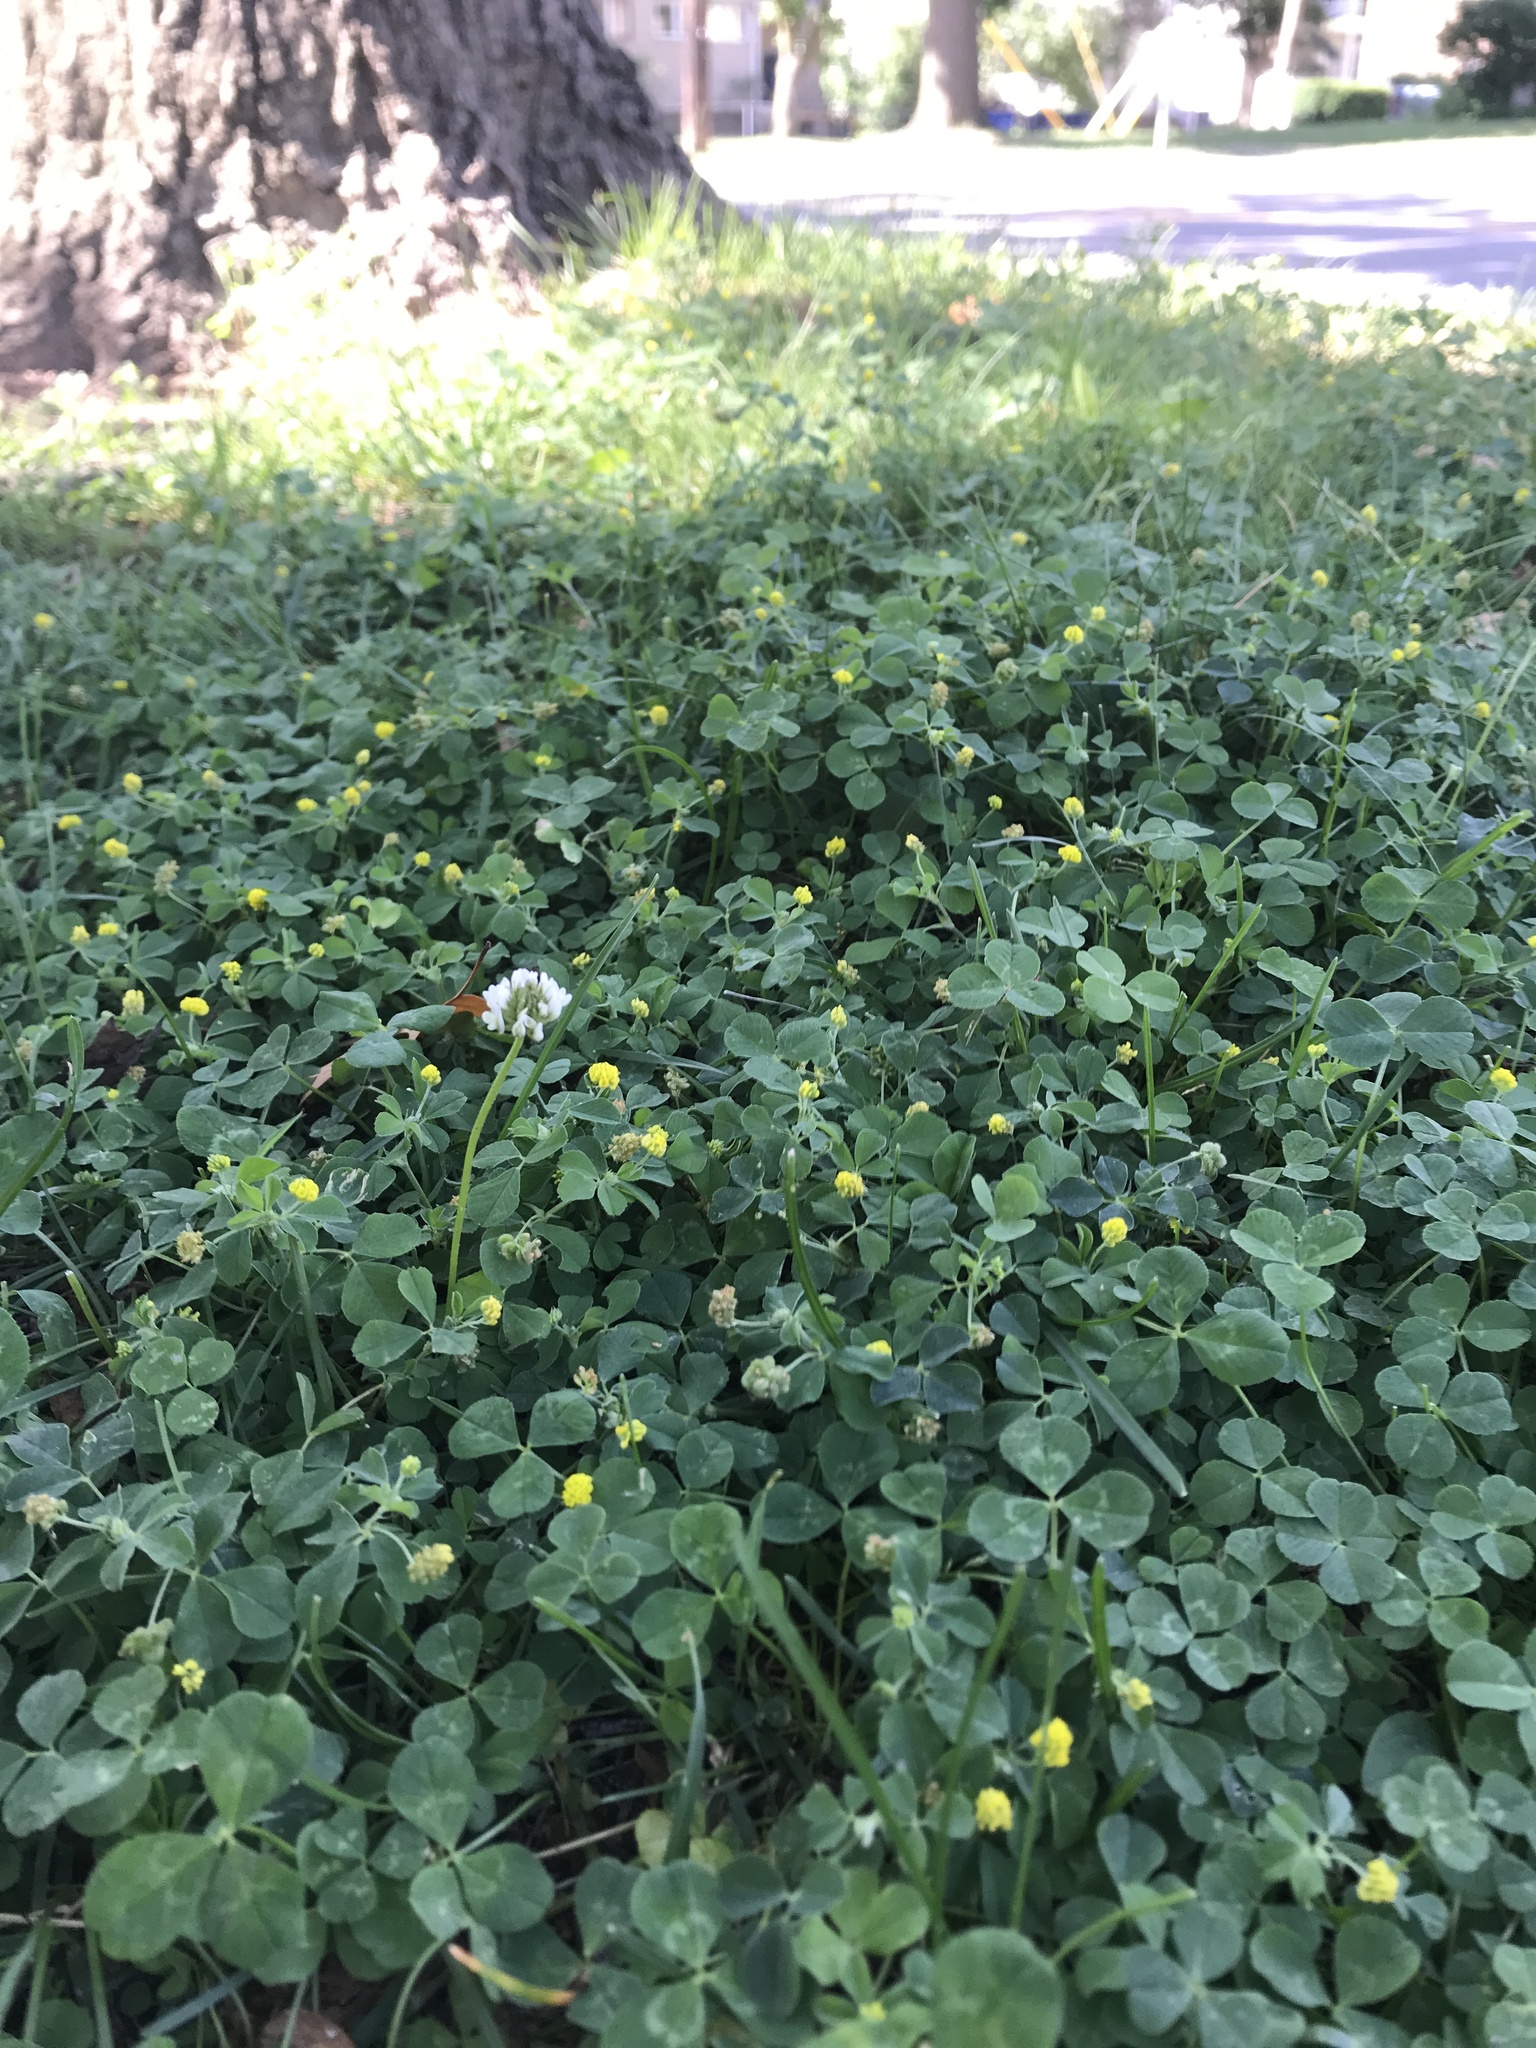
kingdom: Plantae
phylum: Tracheophyta
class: Magnoliopsida
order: Fabales
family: Fabaceae
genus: Medicago
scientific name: Medicago lupulina
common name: Black medick
